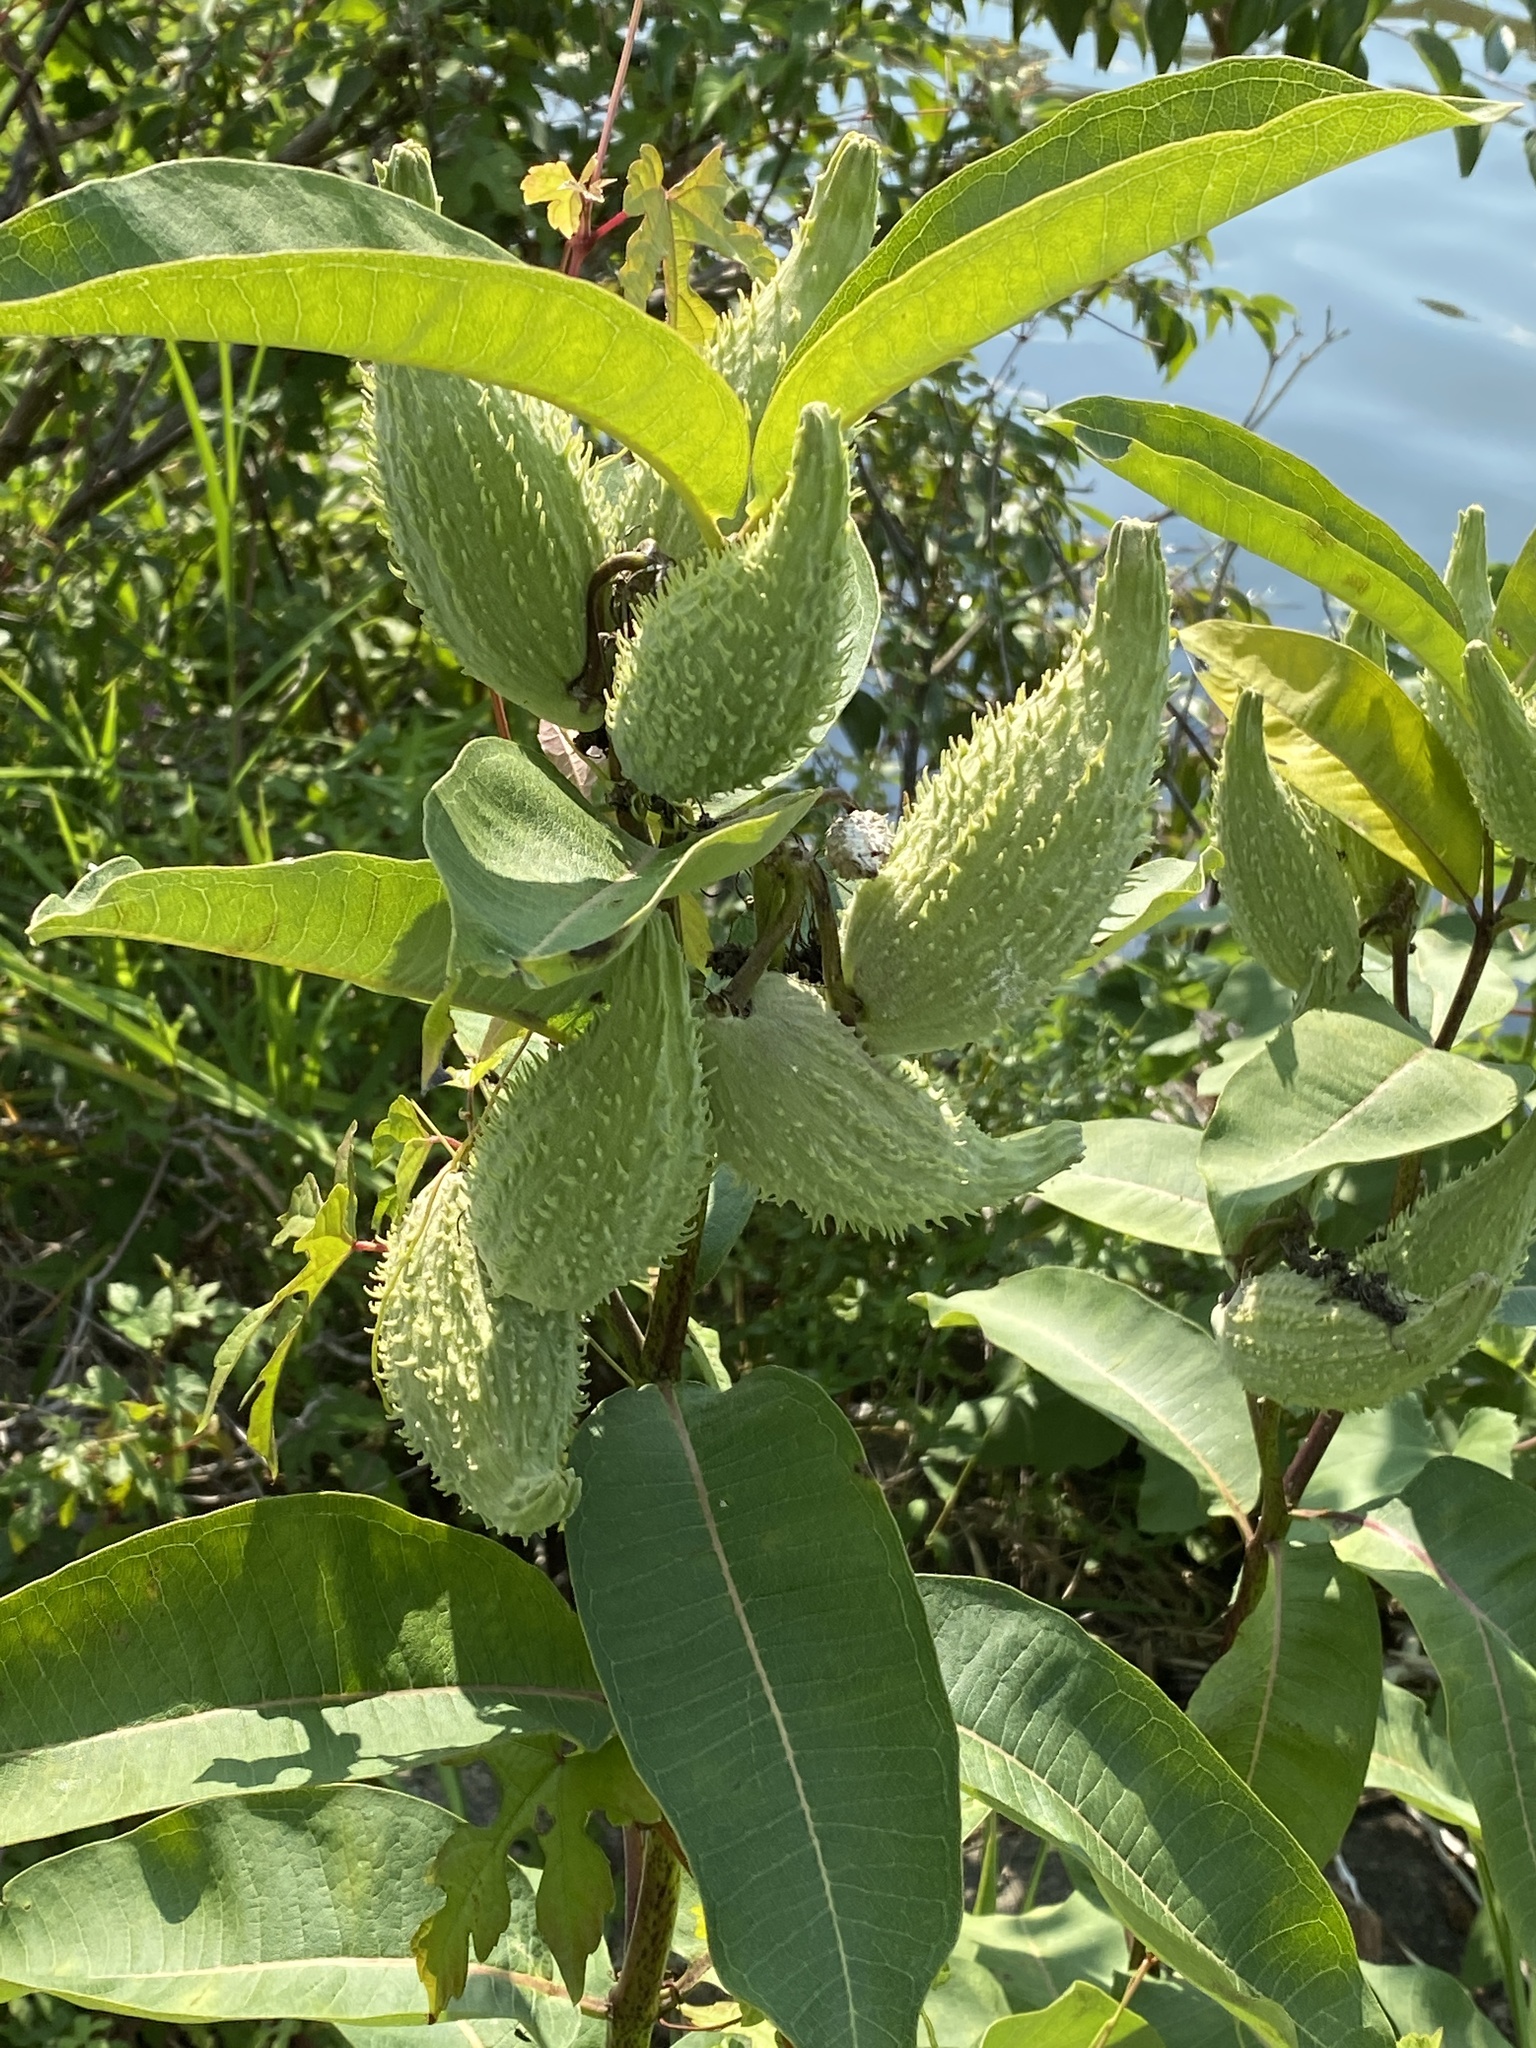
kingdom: Plantae
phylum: Tracheophyta
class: Magnoliopsida
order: Gentianales
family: Apocynaceae
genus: Asclepias
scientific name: Asclepias syriaca
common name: Common milkweed
